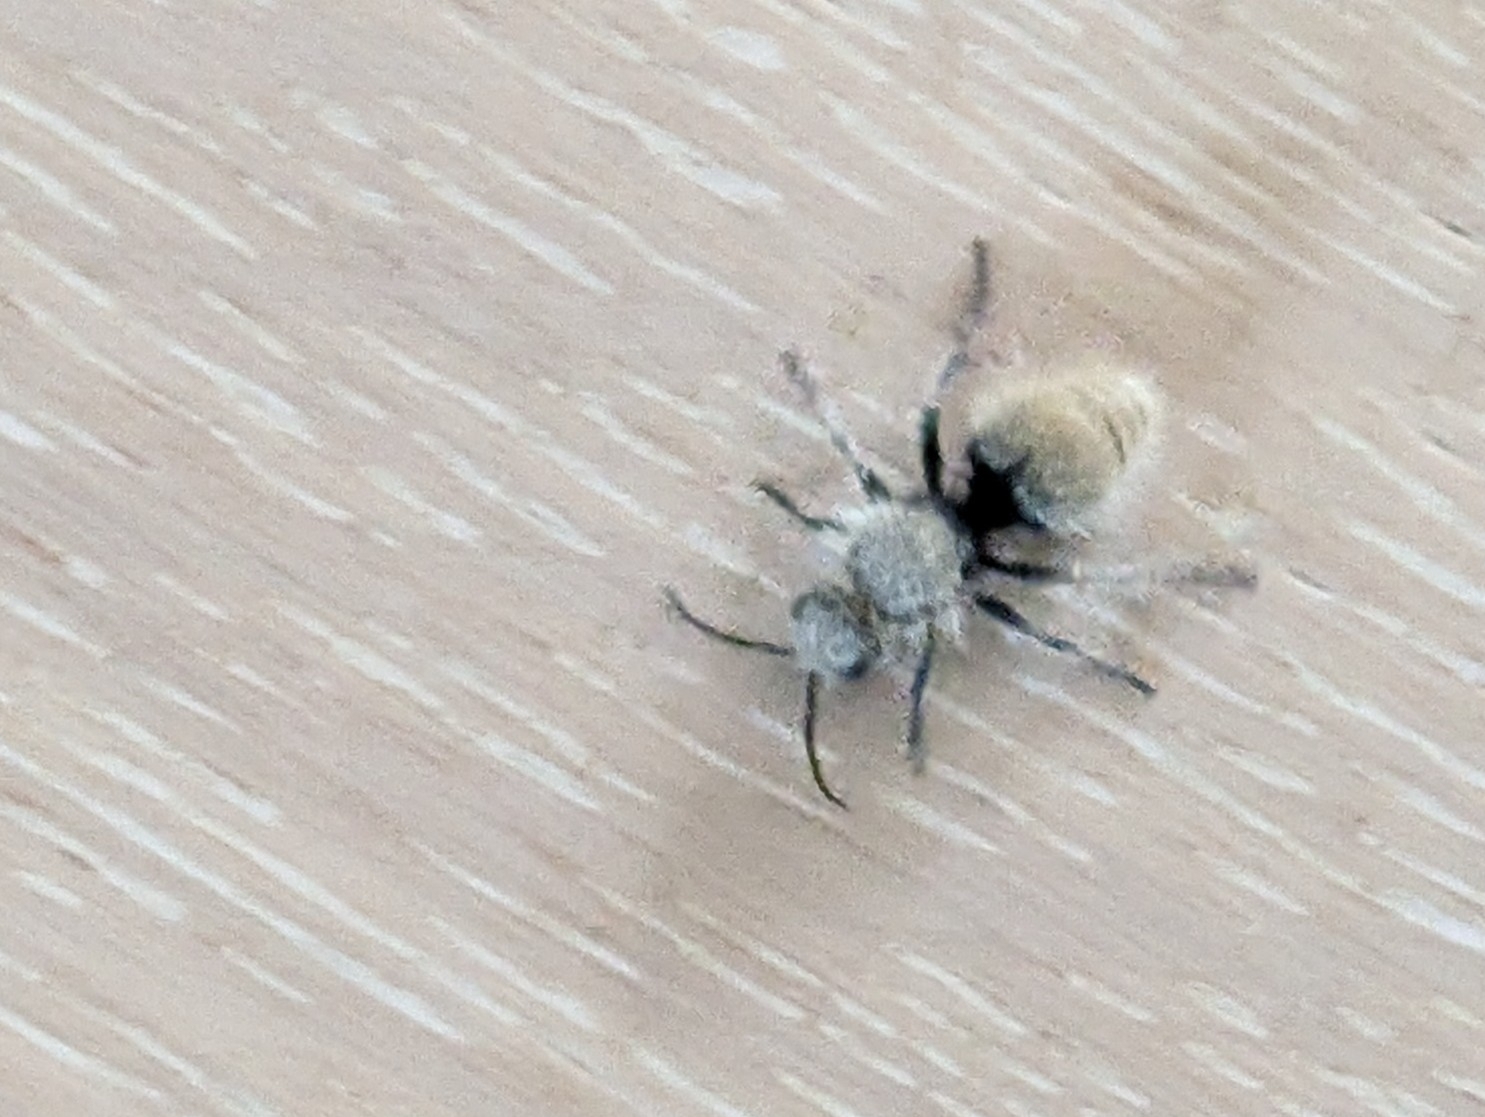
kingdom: Animalia
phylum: Arthropoda
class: Insecta
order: Hymenoptera
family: Mutillidae
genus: Dasymutilla
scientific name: Dasymutilla
